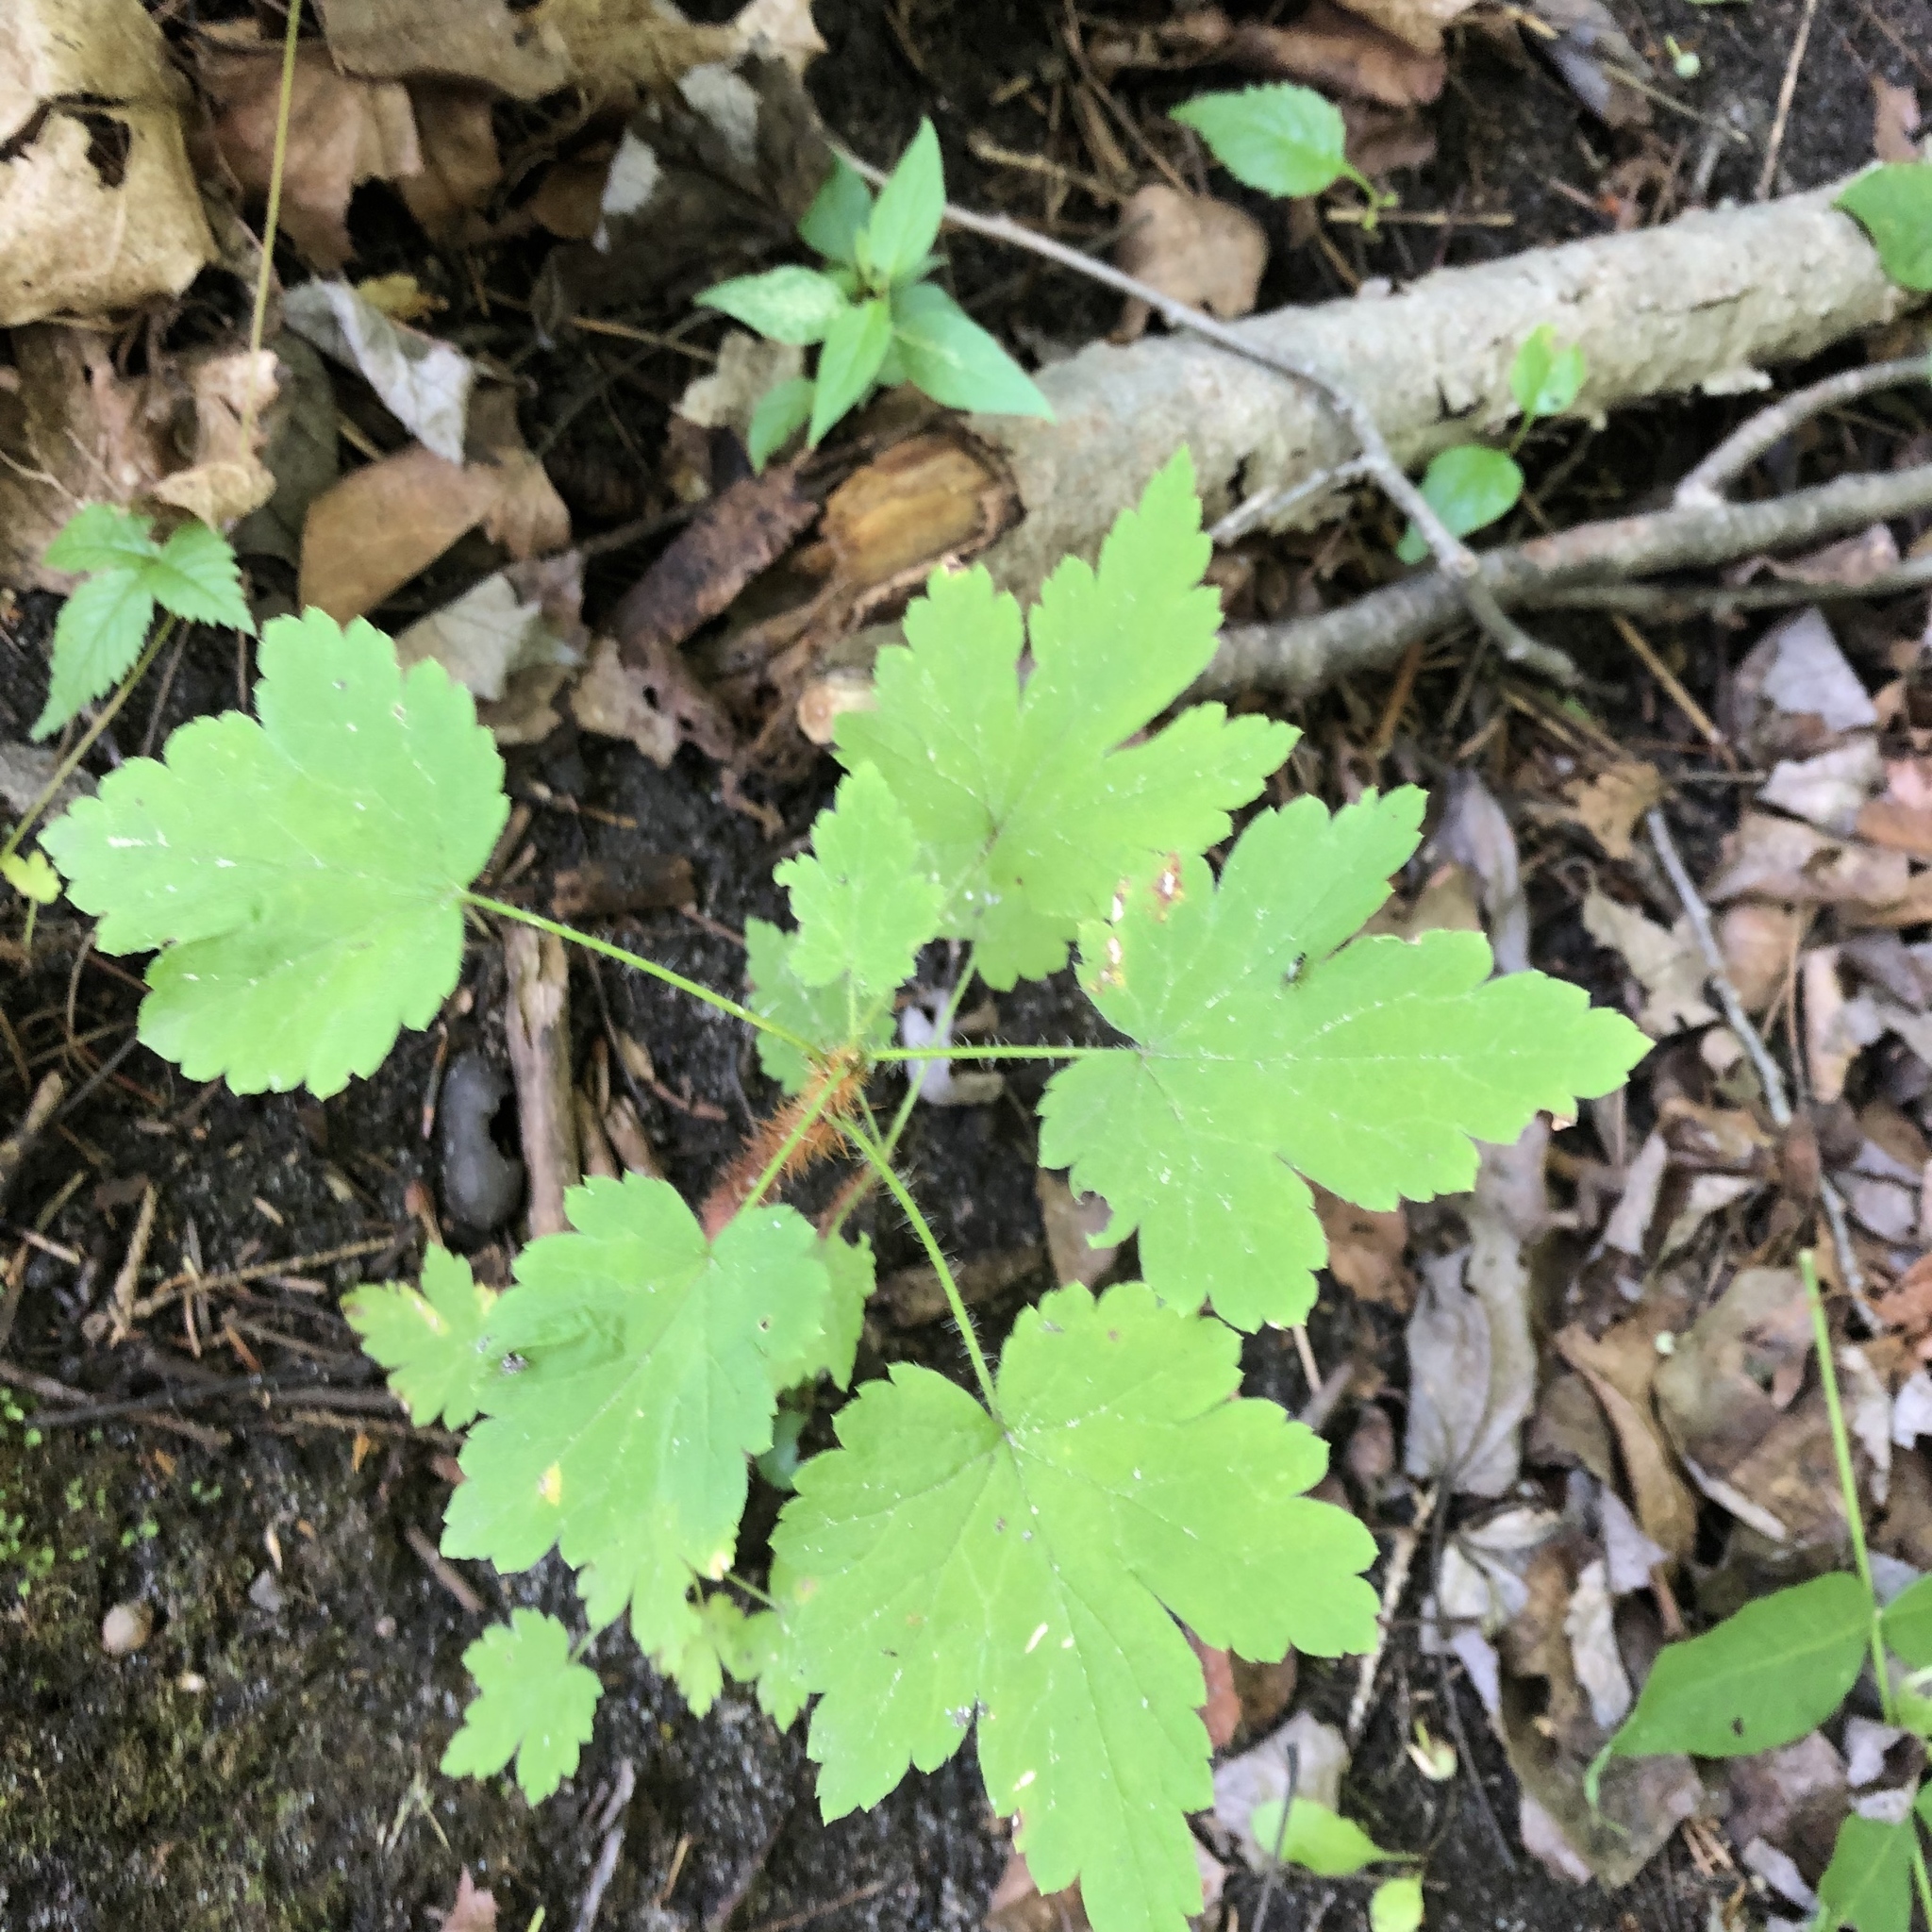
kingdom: Plantae
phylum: Tracheophyta
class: Magnoliopsida
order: Saxifragales
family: Grossulariaceae
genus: Ribes
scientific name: Ribes cynosbati
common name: American gooseberry
